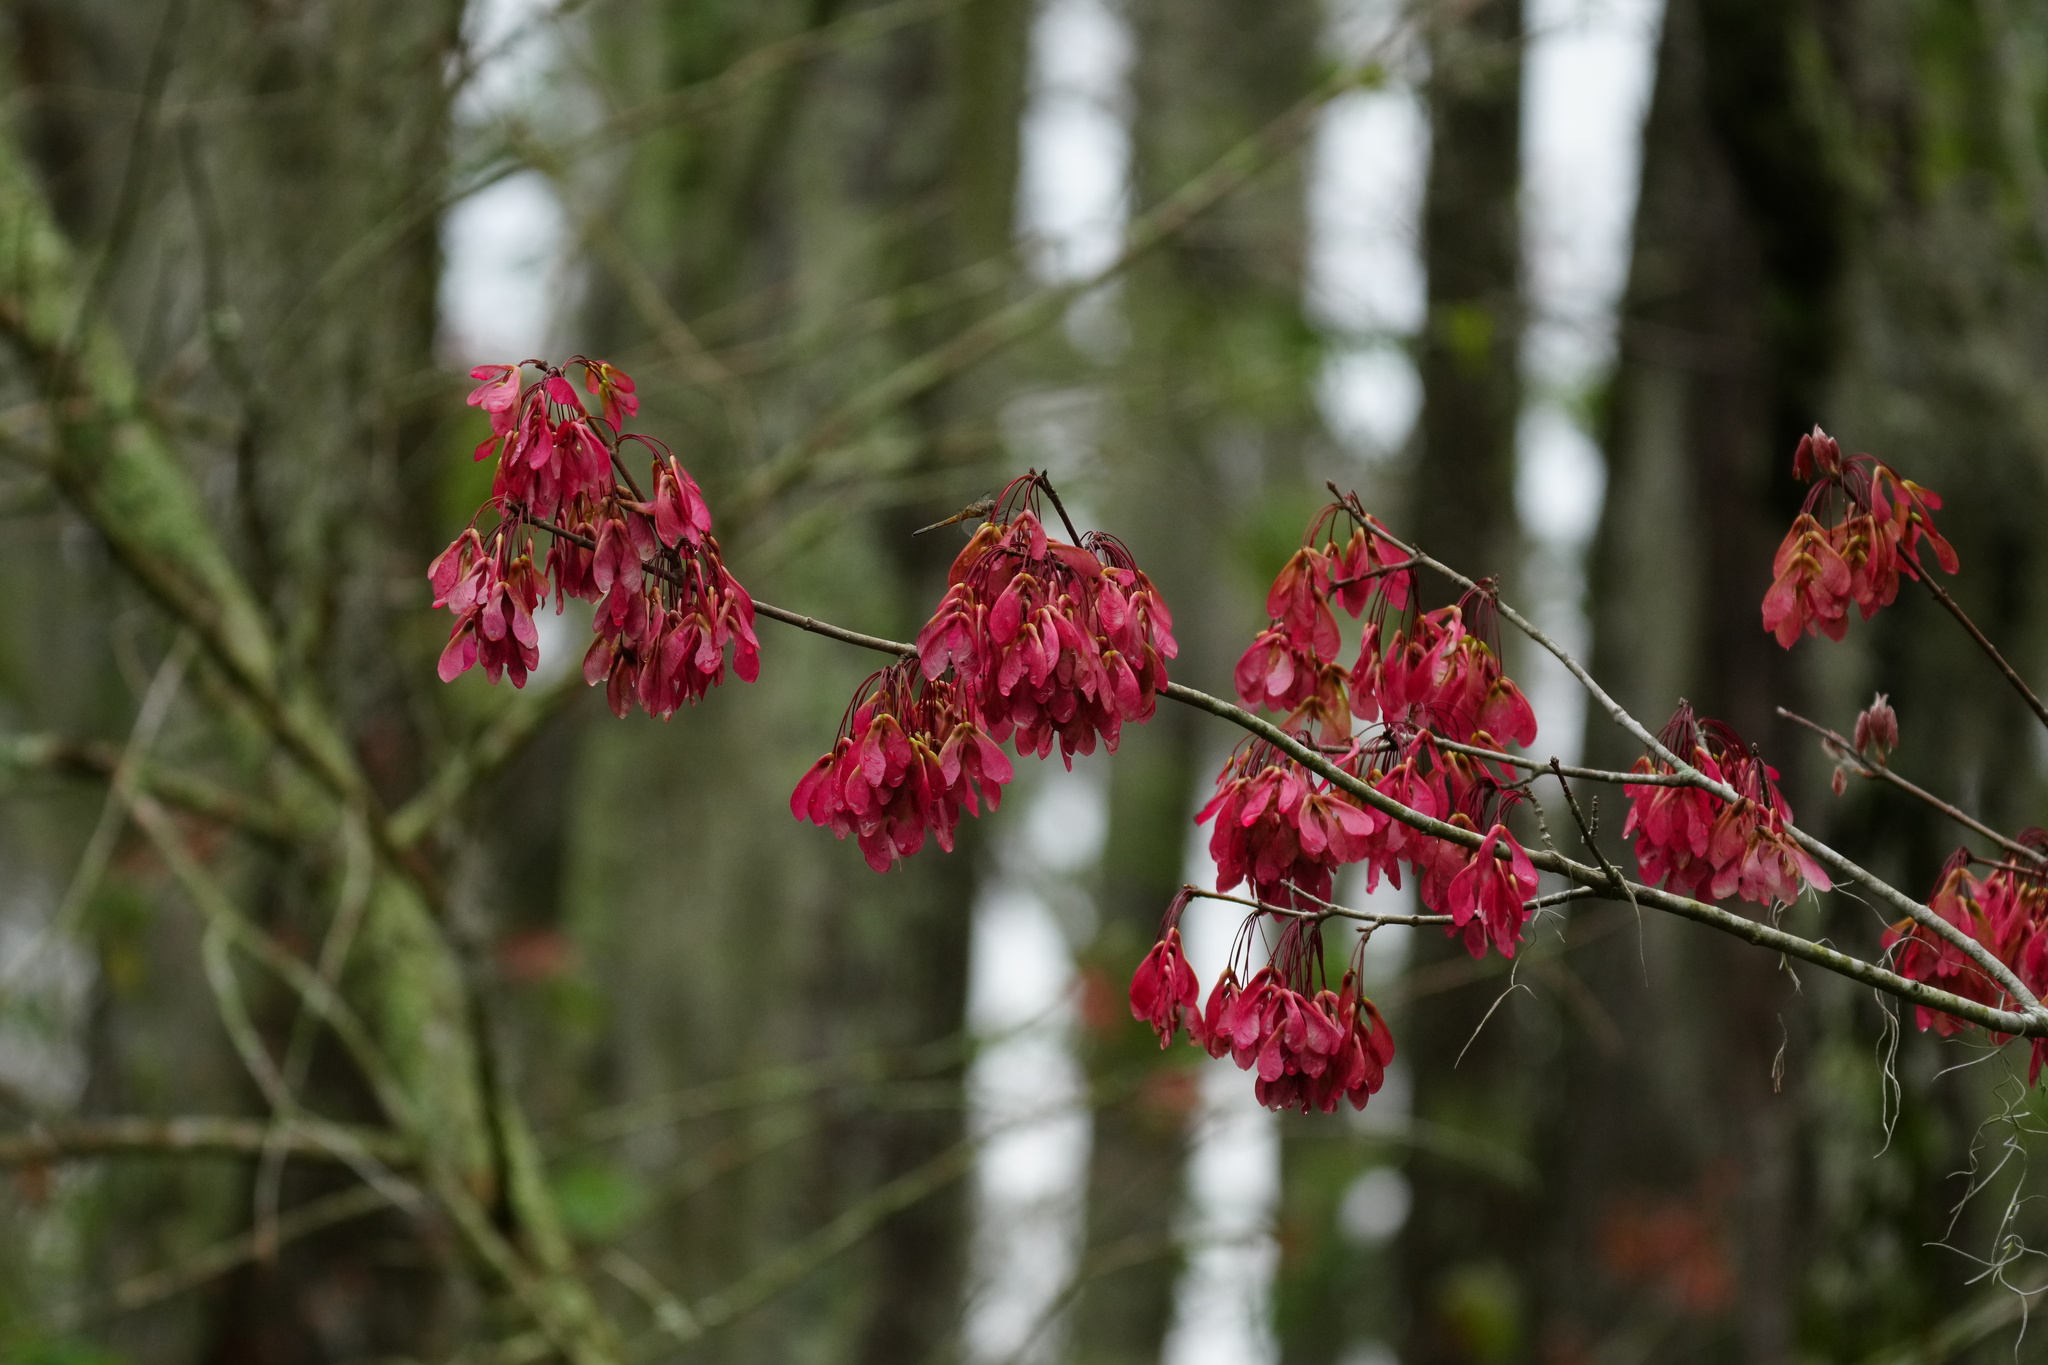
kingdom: Plantae
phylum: Tracheophyta
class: Magnoliopsida
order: Sapindales
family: Sapindaceae
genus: Acer
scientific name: Acer rubrum
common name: Red maple
